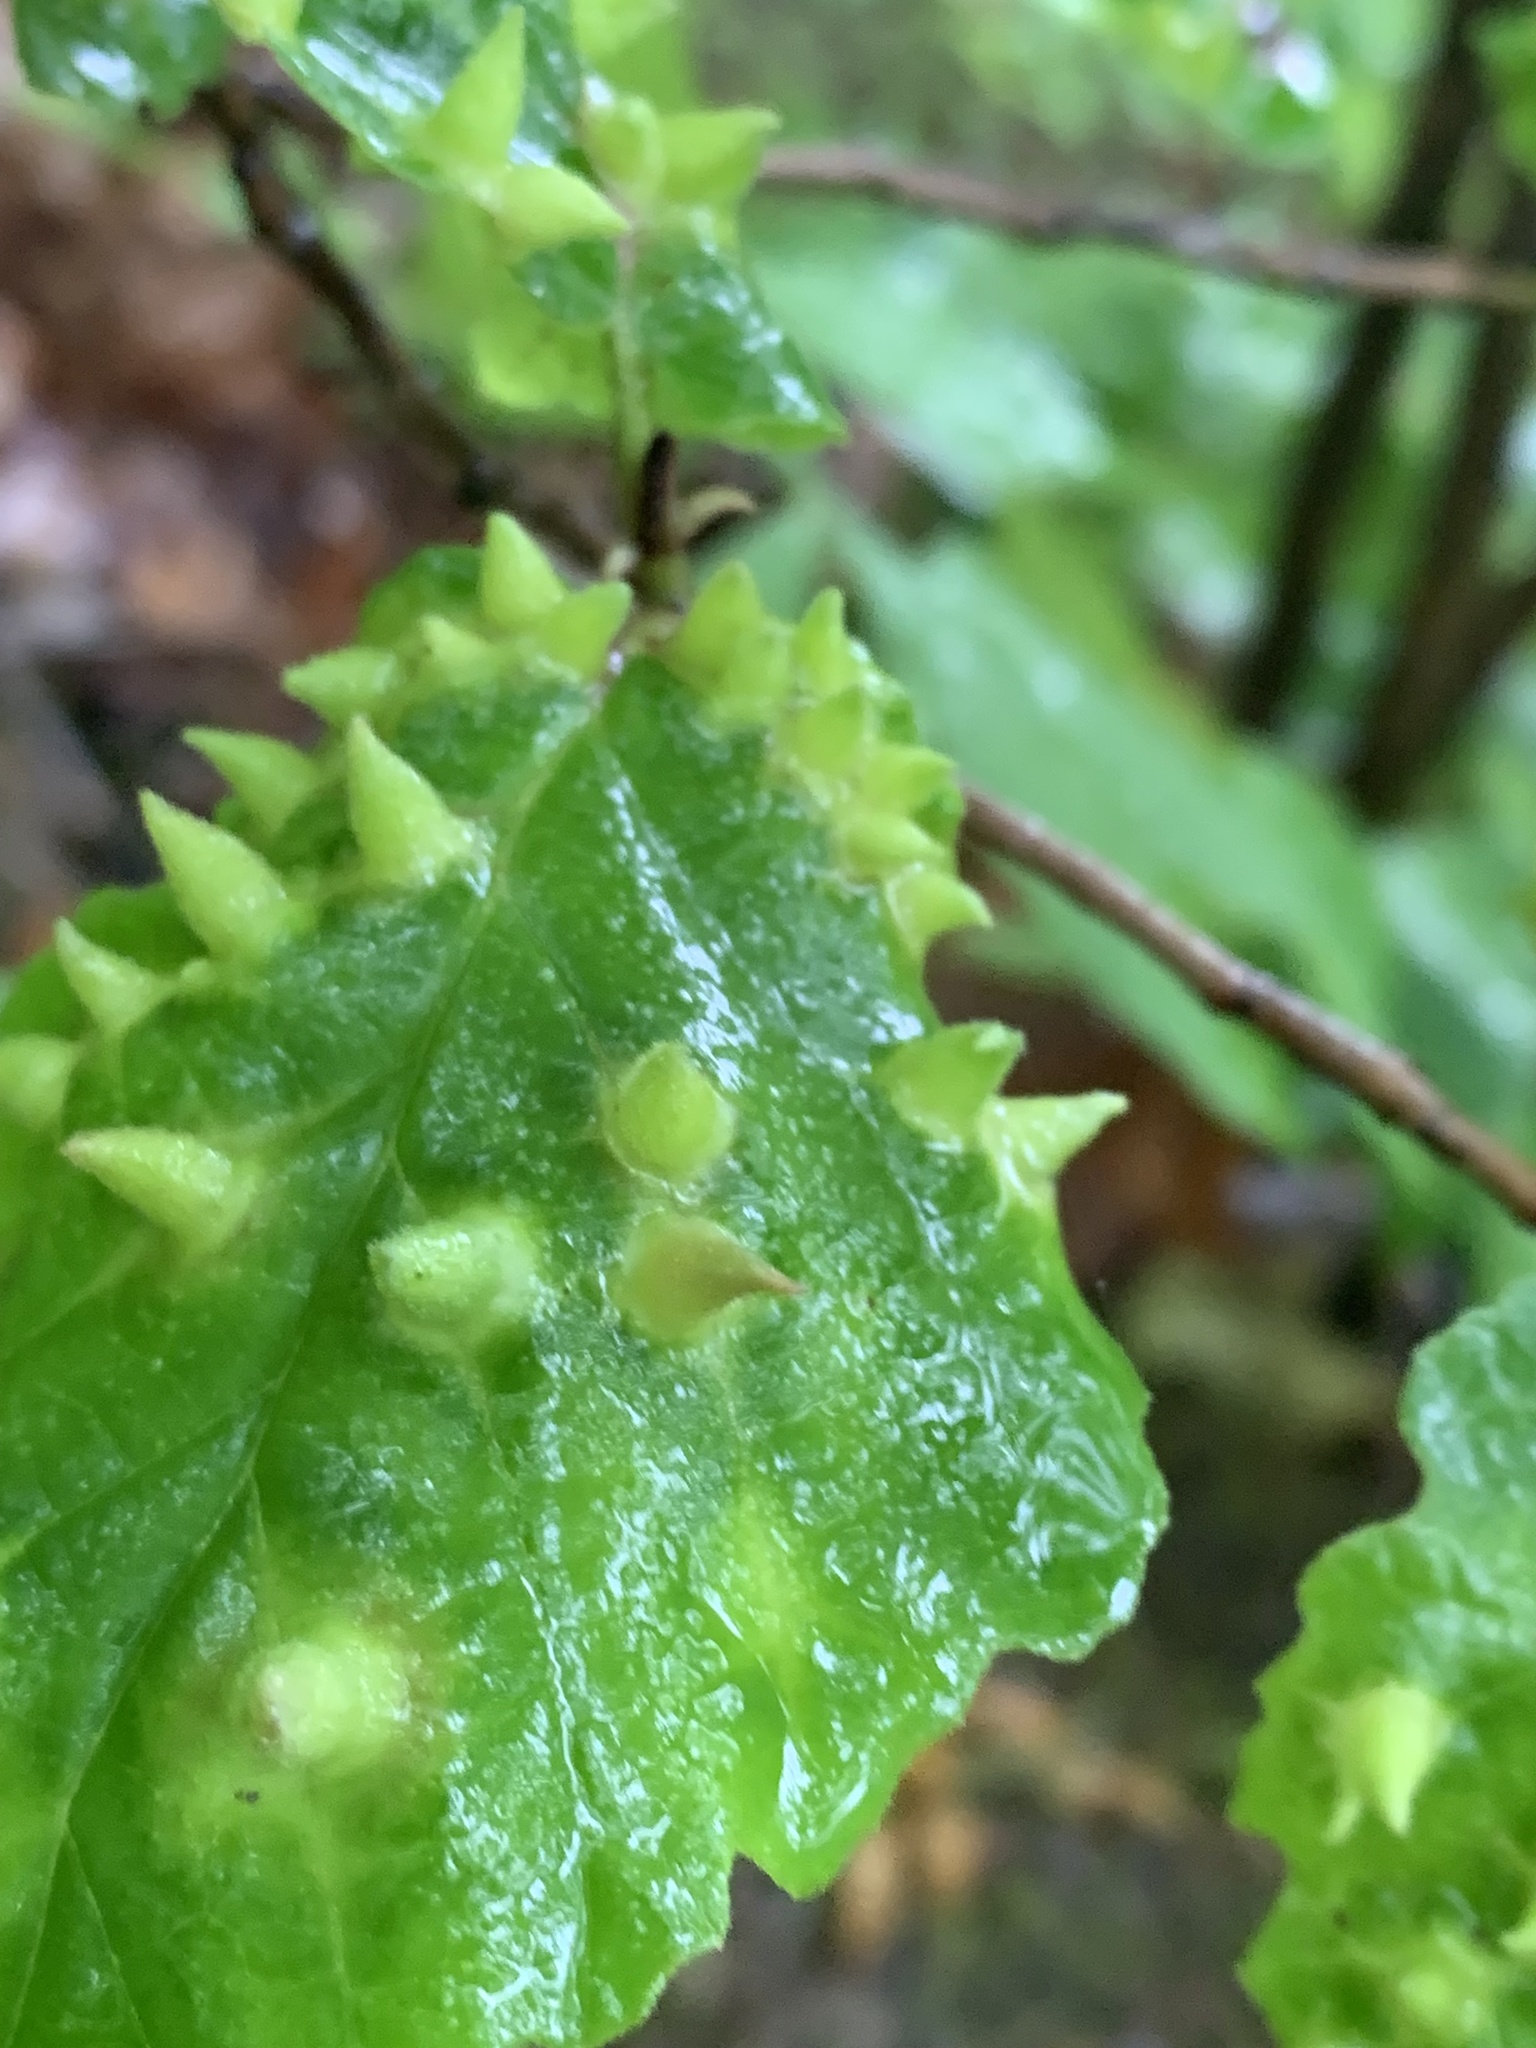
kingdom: Animalia
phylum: Arthropoda
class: Insecta
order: Hemiptera
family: Aphididae
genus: Hormaphis
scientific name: Hormaphis hamamelidis
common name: Witch-hazel cone gall aphid
